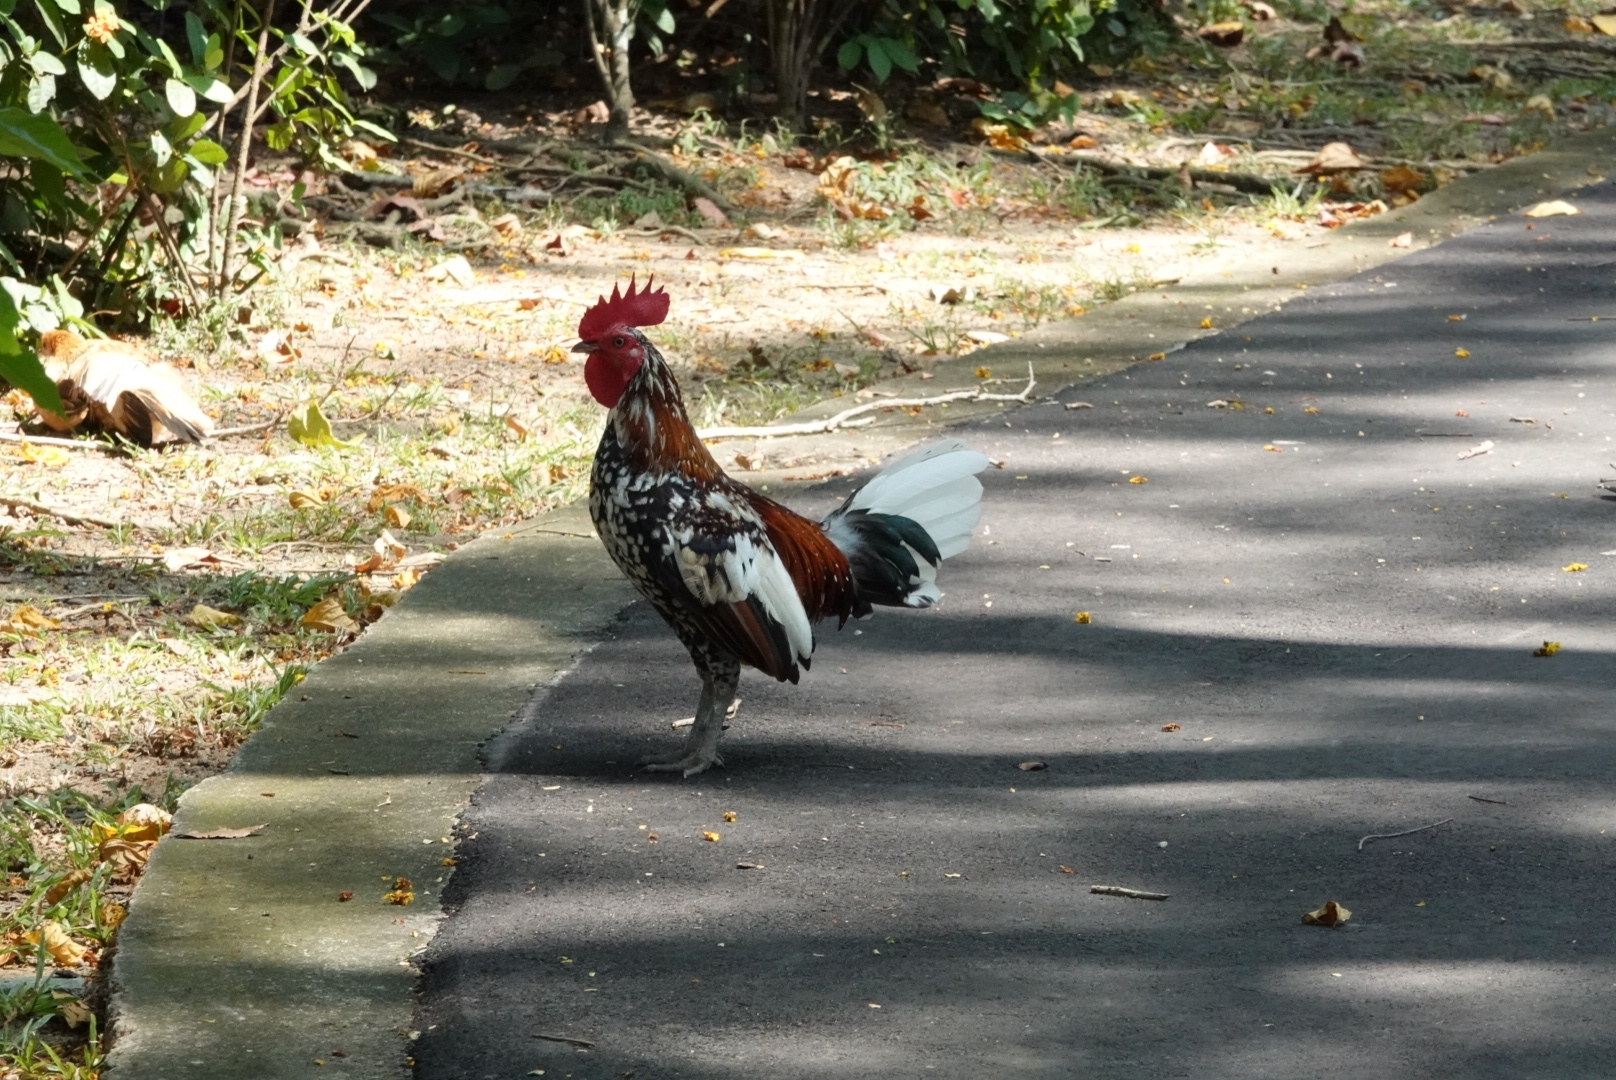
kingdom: Animalia
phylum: Chordata
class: Aves
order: Galliformes
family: Phasianidae
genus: Gallus
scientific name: Gallus gallus
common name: Red junglefowl
